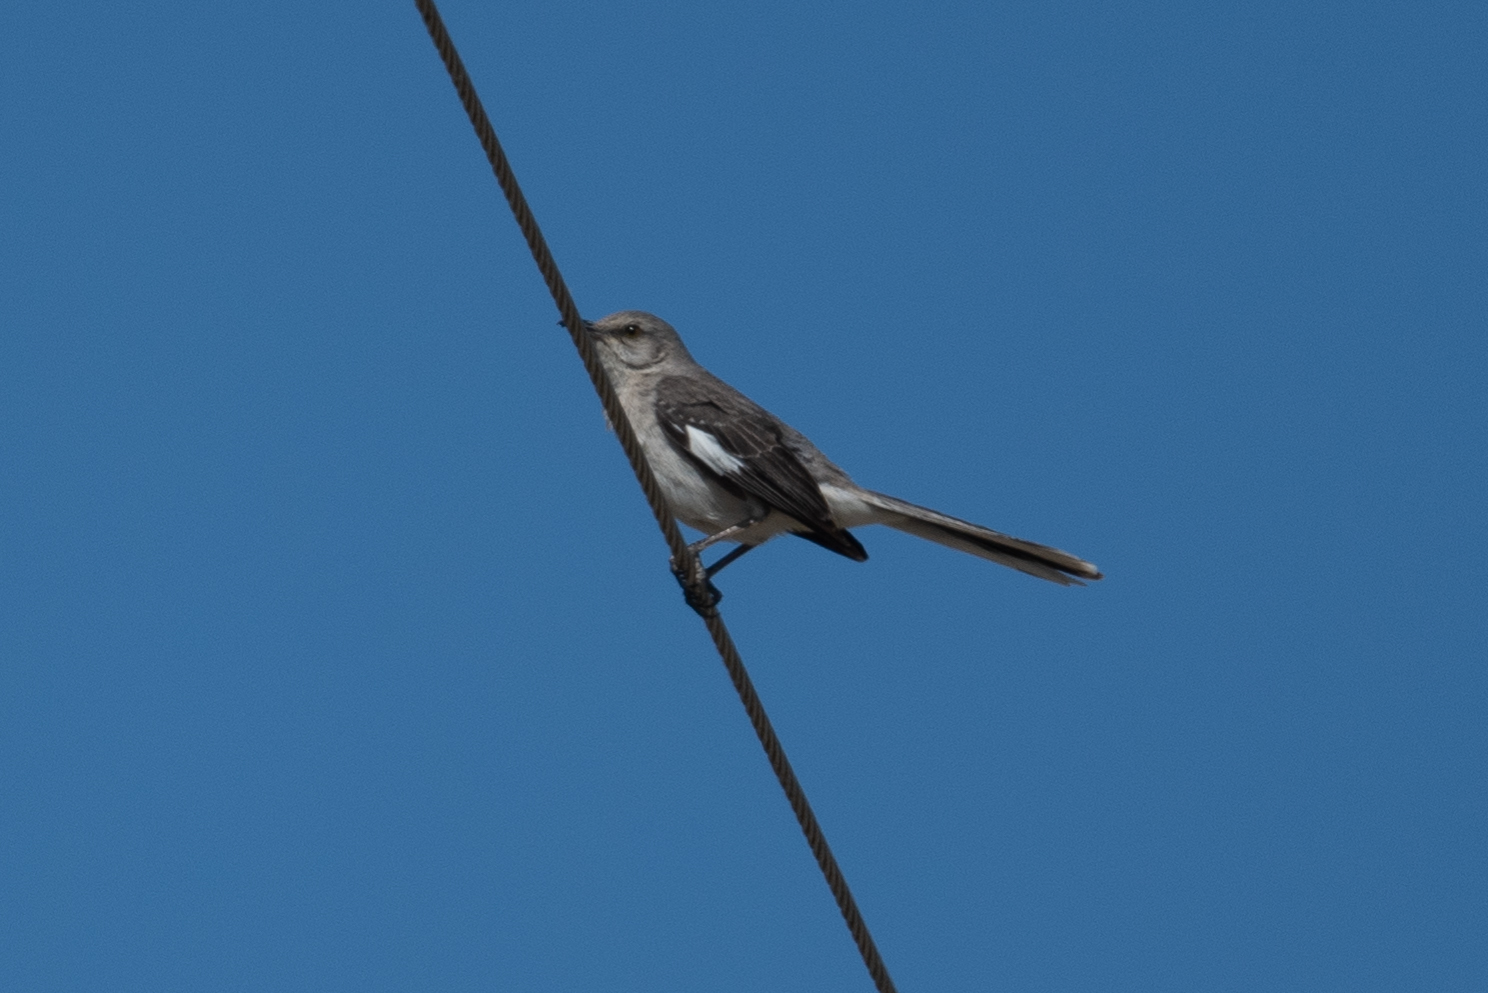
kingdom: Animalia
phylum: Chordata
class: Aves
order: Passeriformes
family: Mimidae
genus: Mimus
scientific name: Mimus polyglottos
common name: Northern mockingbird
